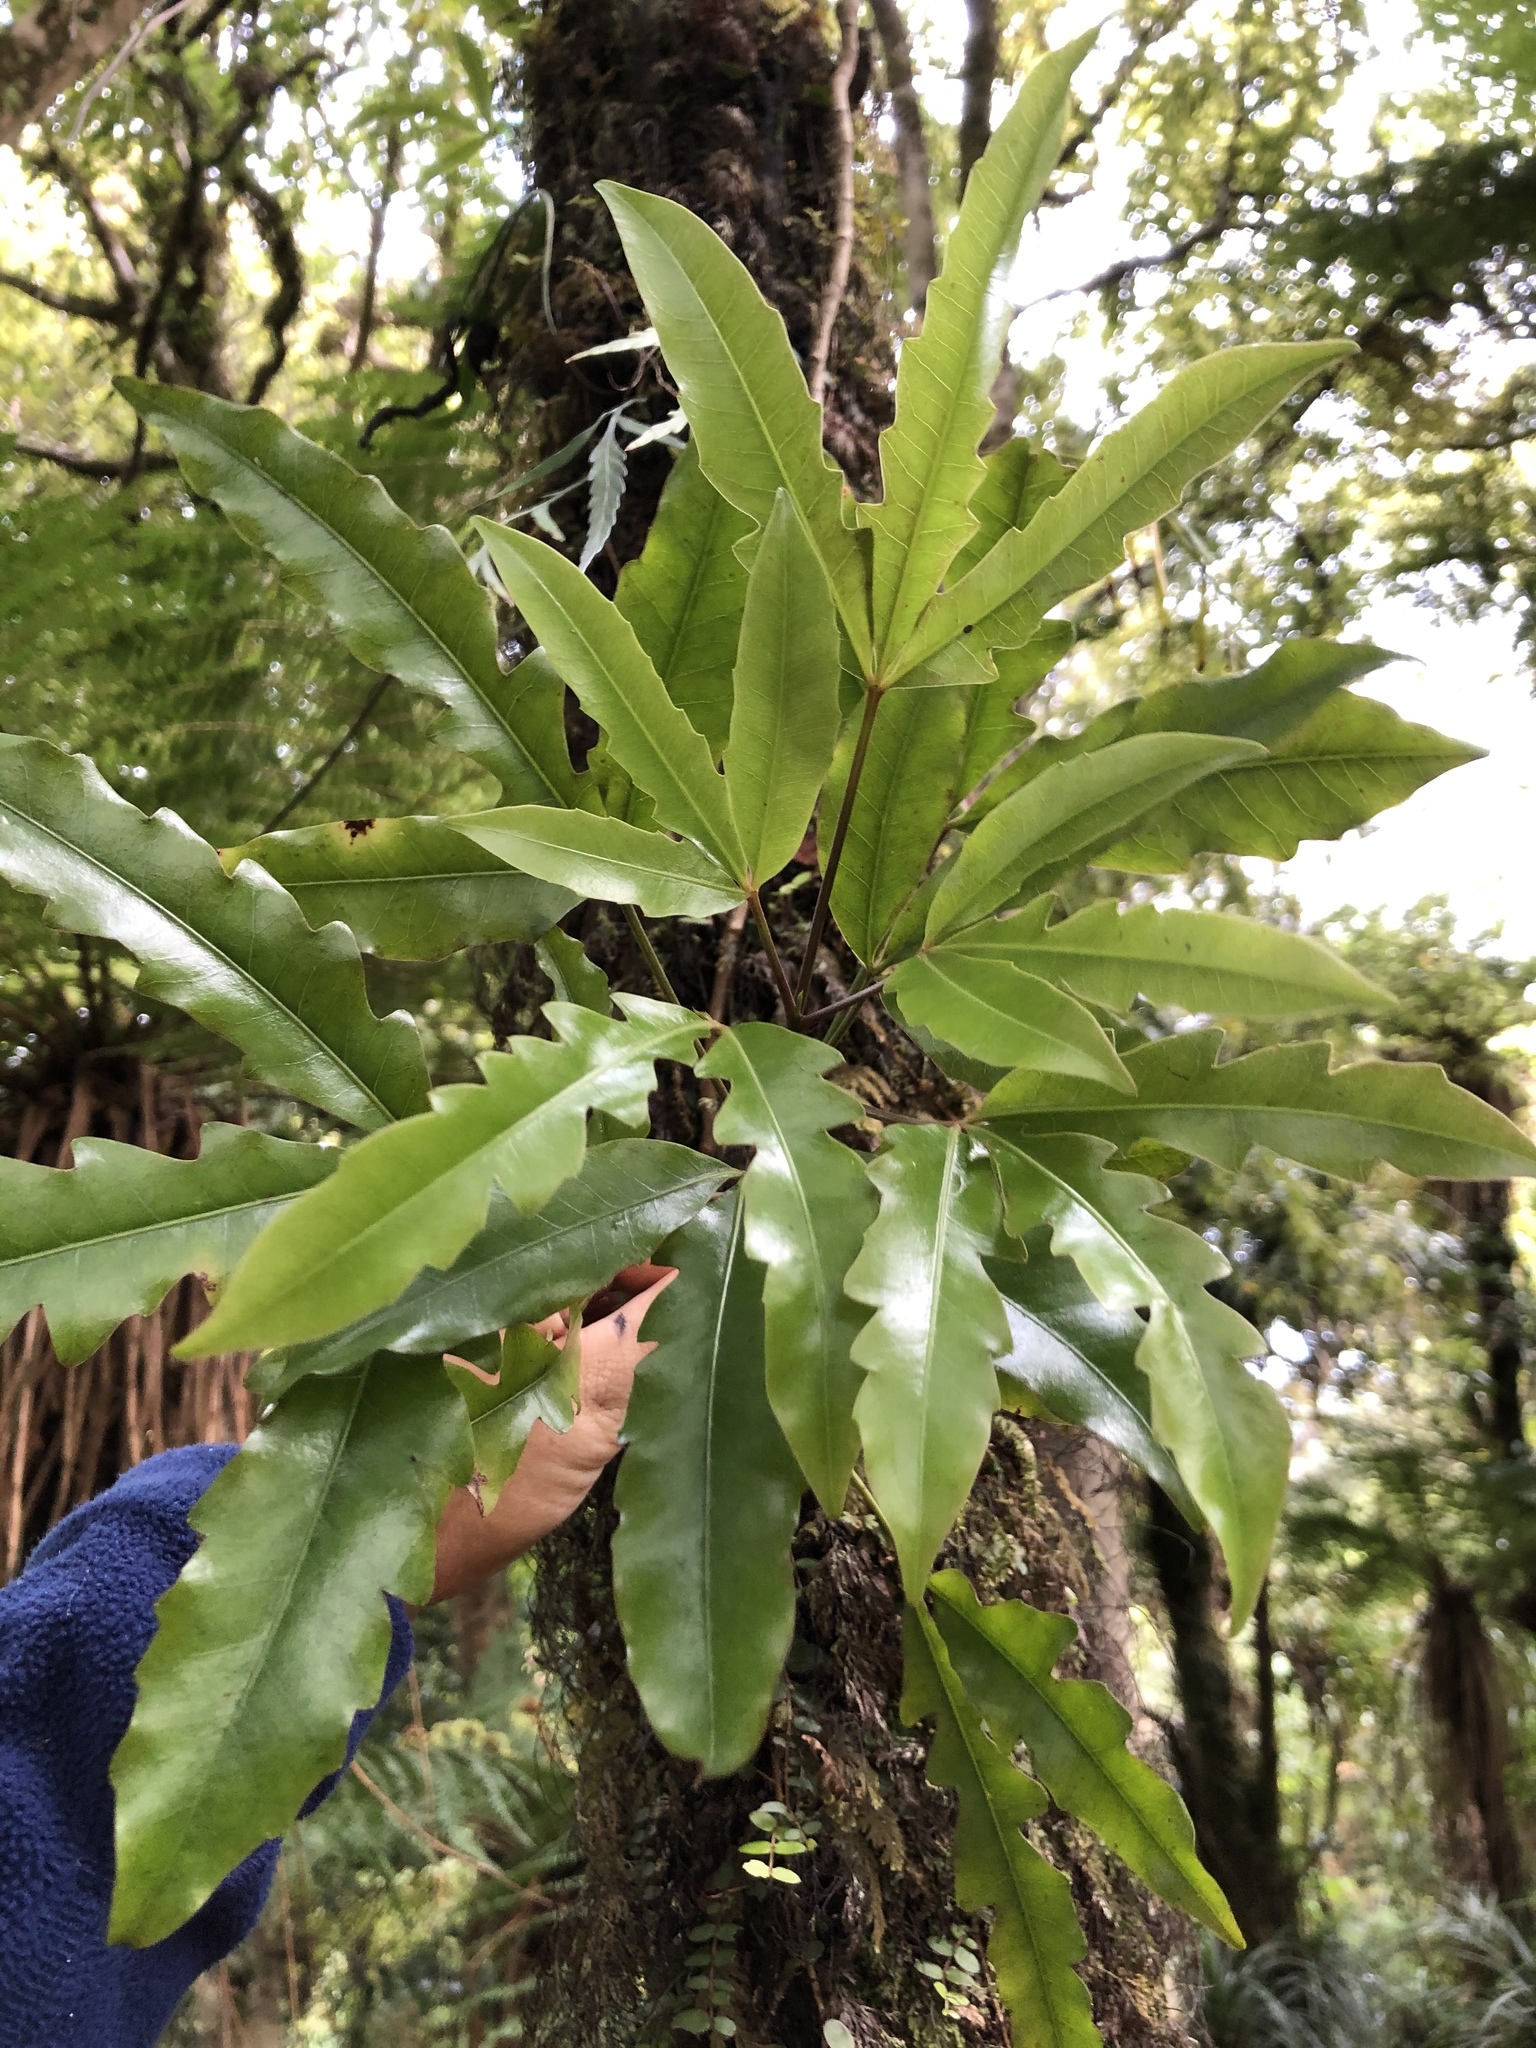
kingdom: Plantae
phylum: Tracheophyta
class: Magnoliopsida
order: Apiales
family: Araliaceae
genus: Raukaua
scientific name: Raukaua edgerleyi
